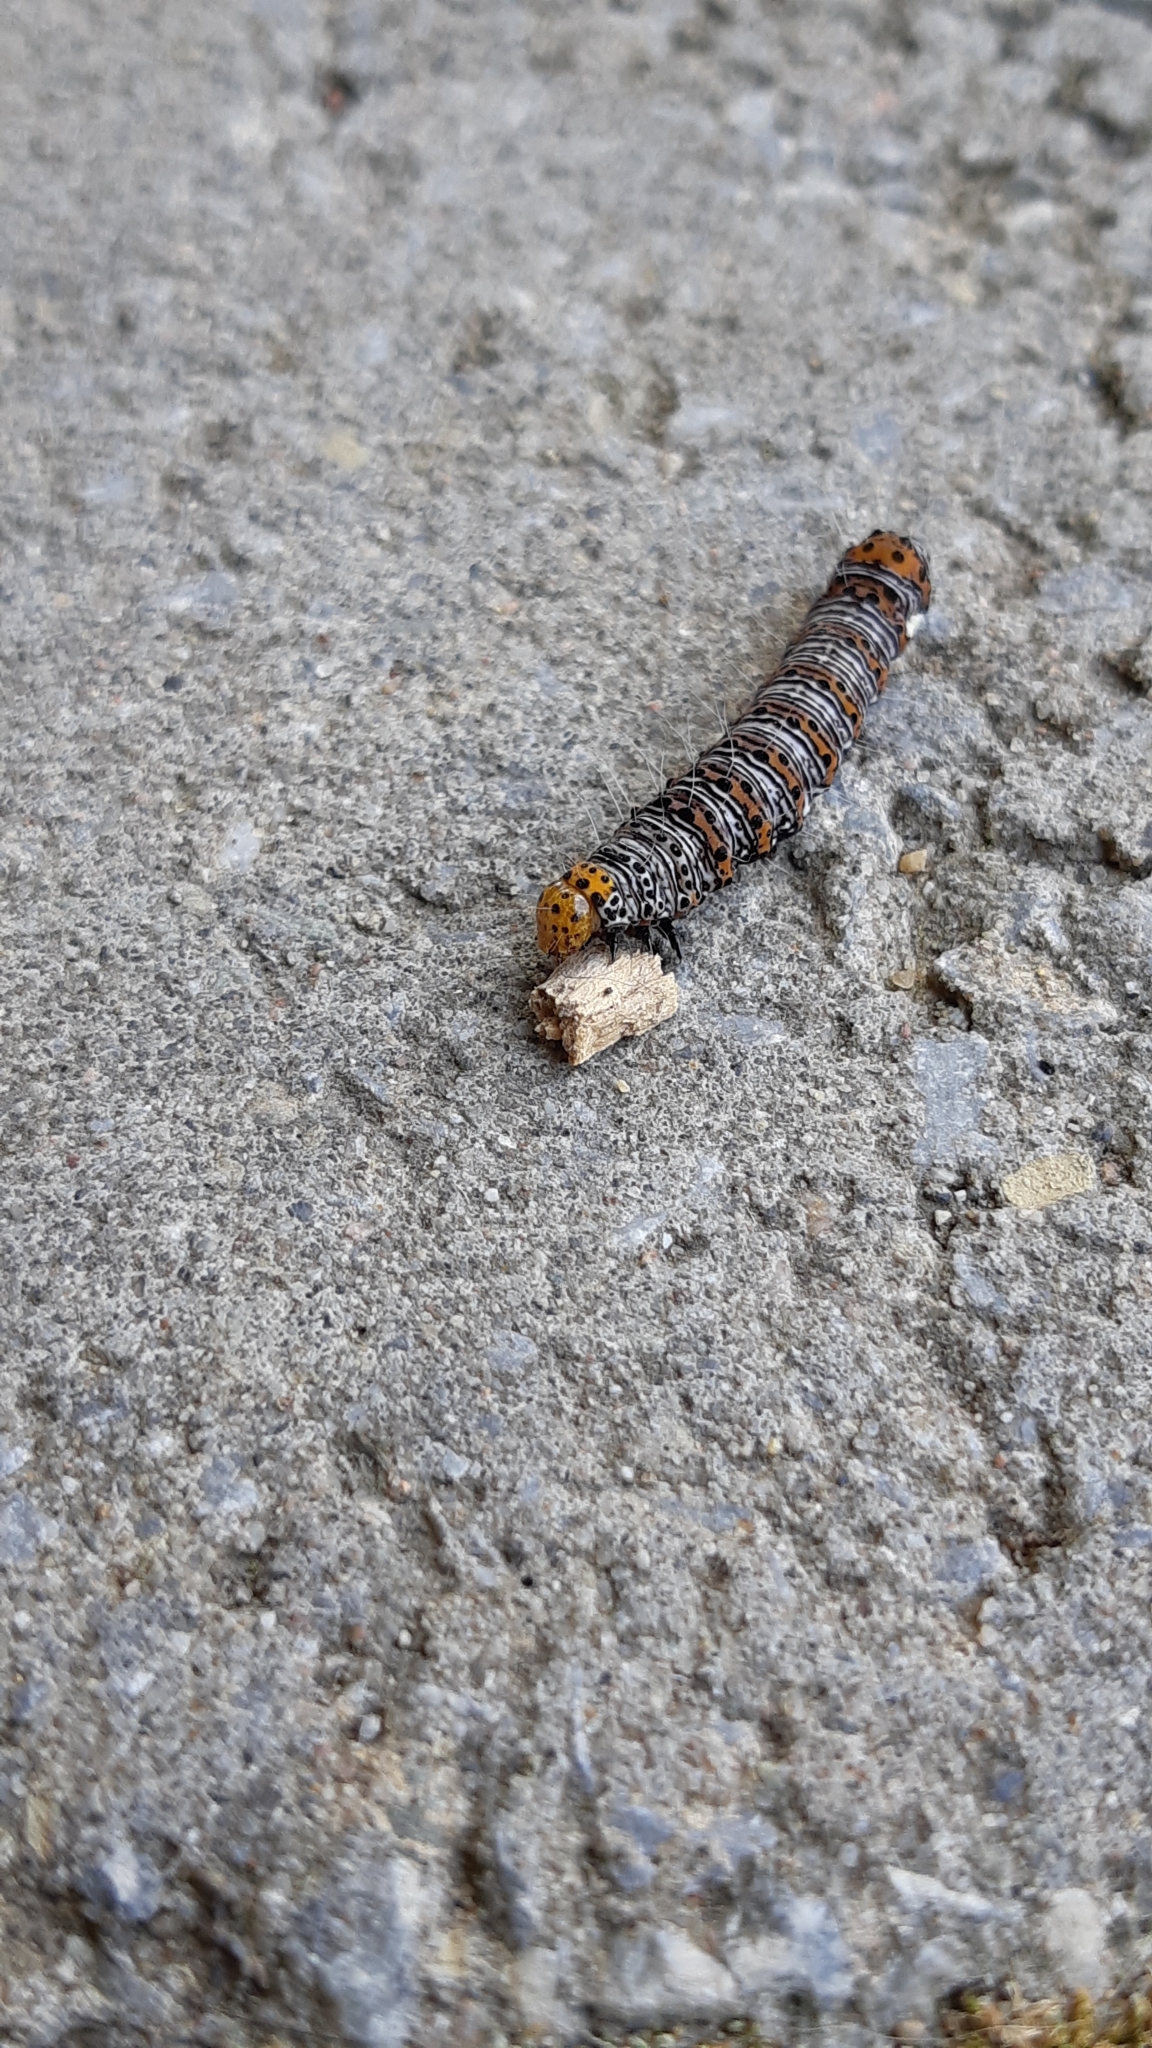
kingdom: Animalia
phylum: Arthropoda
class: Insecta
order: Lepidoptera
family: Noctuidae
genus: Alypia
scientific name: Alypia octomaculata
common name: Eight-spotted forester
